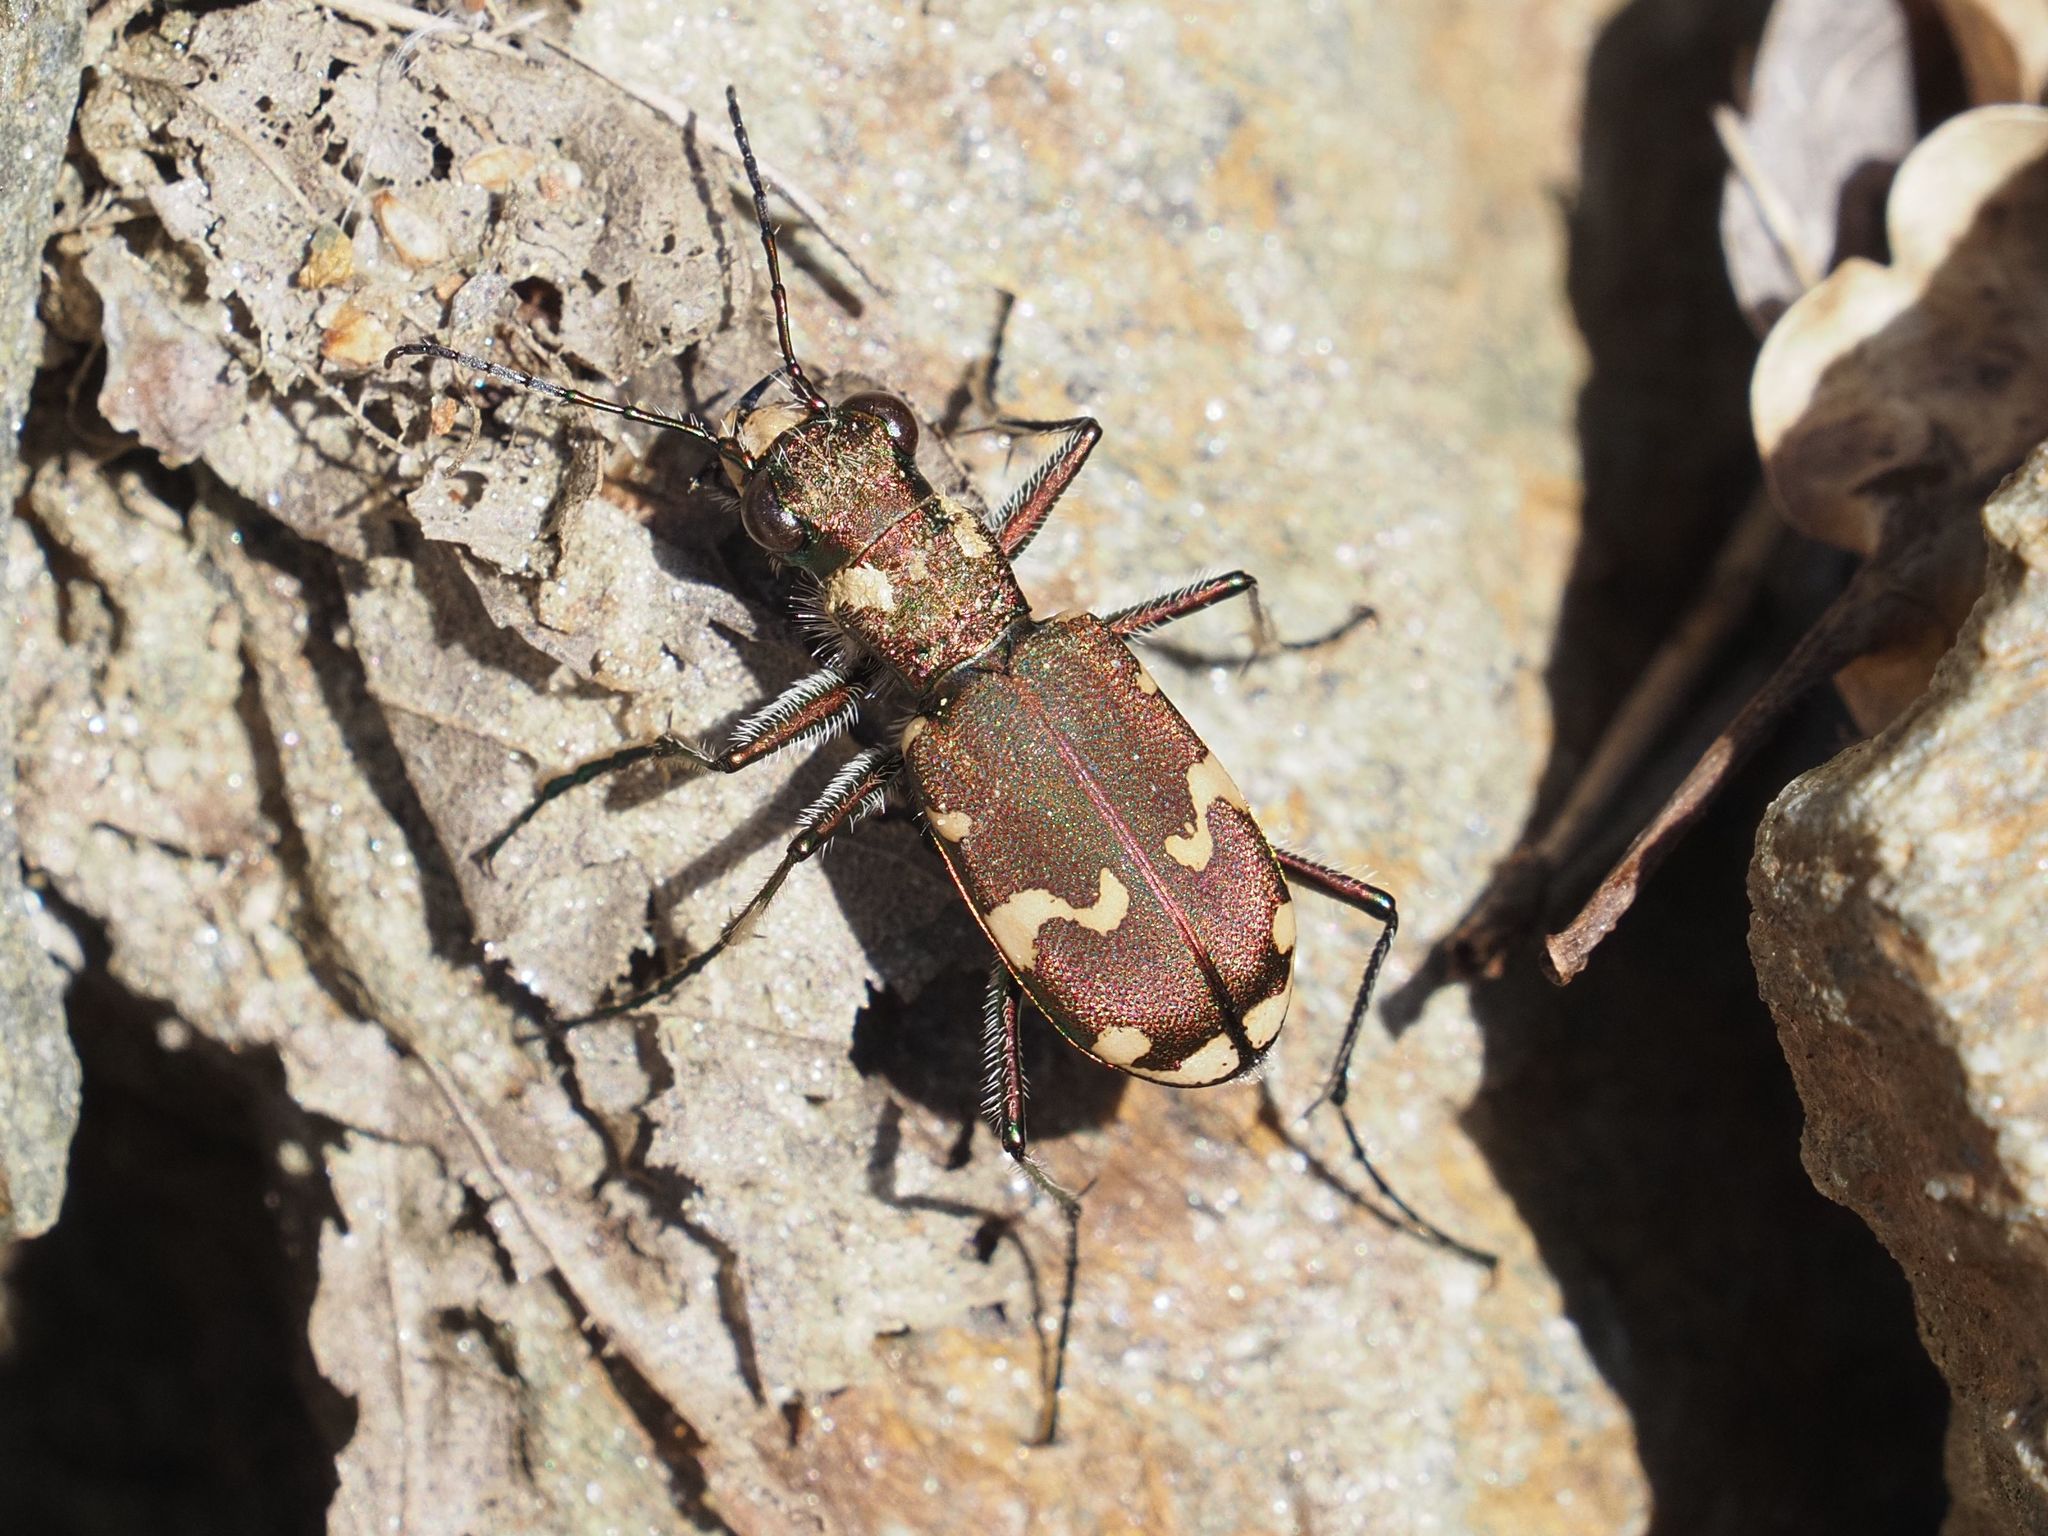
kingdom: Animalia
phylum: Arthropoda
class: Insecta
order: Coleoptera
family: Carabidae
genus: Cicindela
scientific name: Cicindela sylvicola
